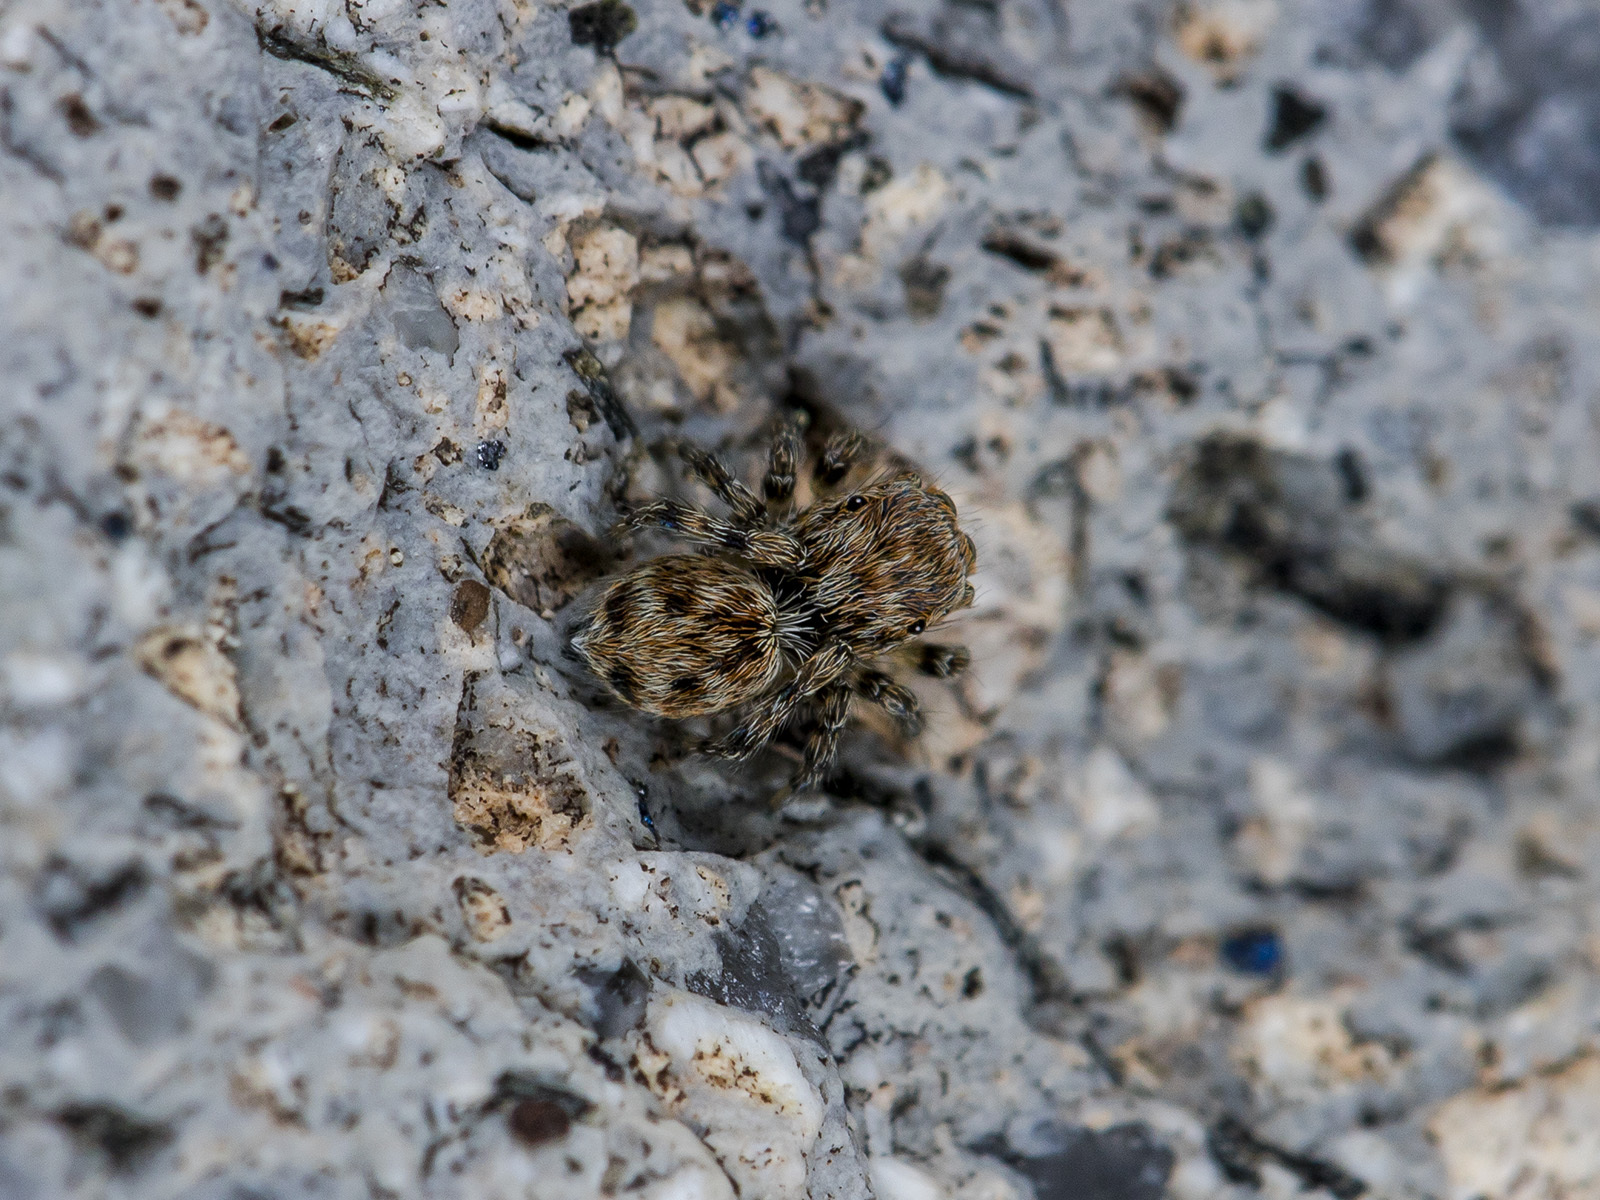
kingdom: Animalia
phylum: Arthropoda
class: Arachnida
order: Araneae
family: Salticidae
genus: Attulus
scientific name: Attulus avocator
